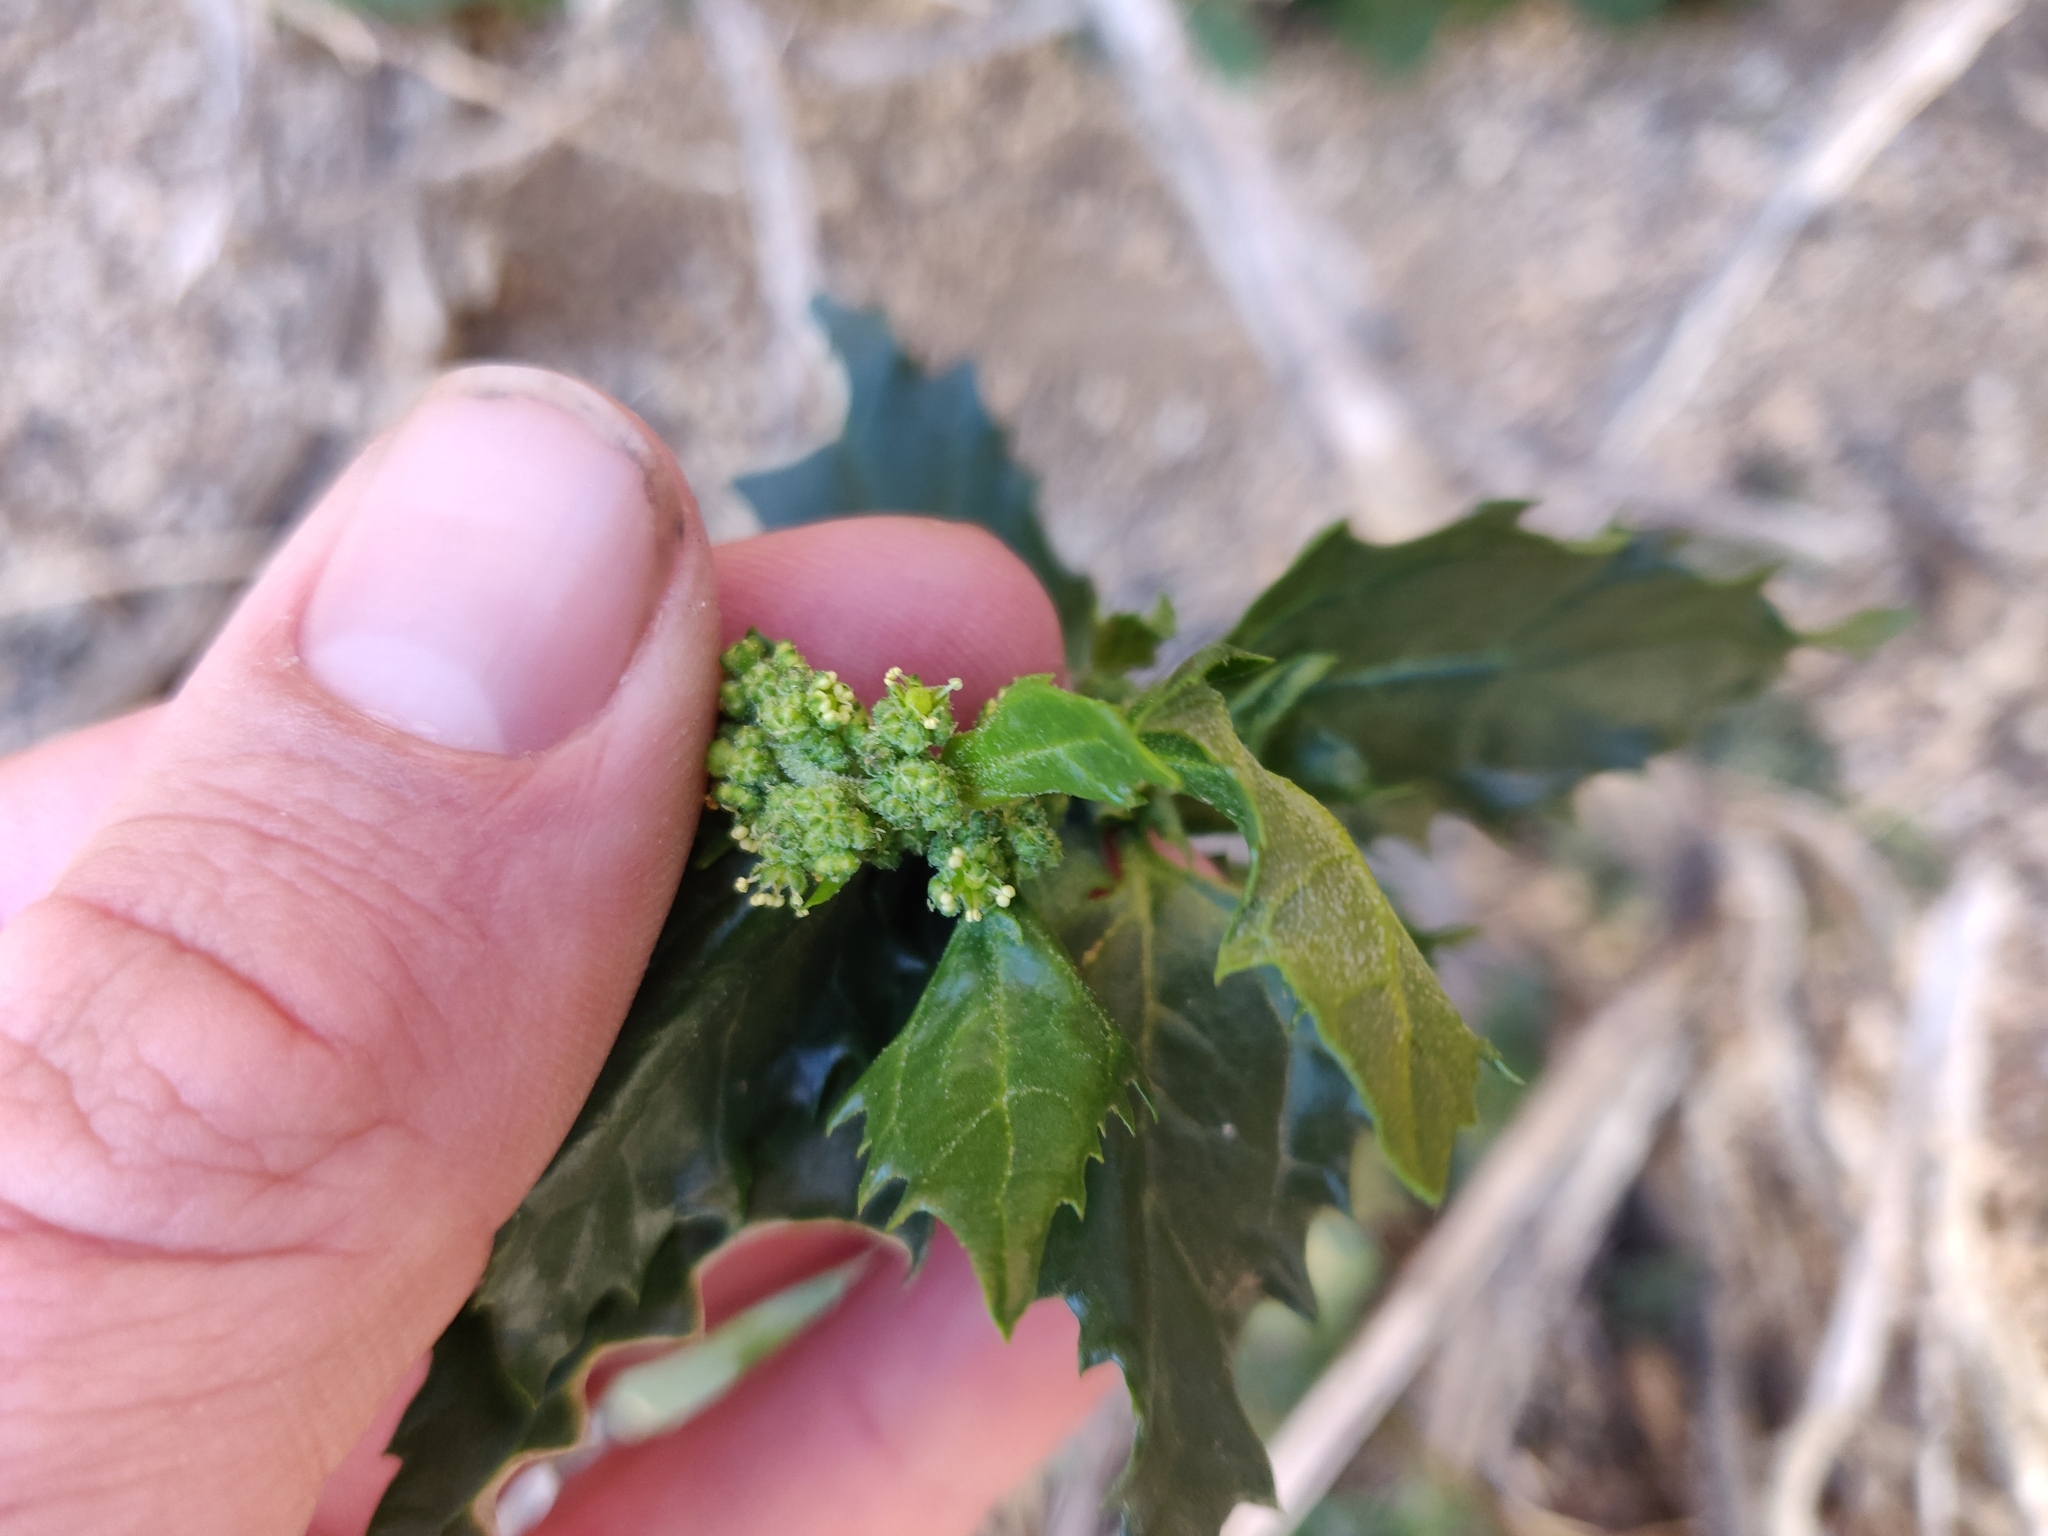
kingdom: Plantae
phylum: Tracheophyta
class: Magnoliopsida
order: Caryophyllales
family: Amaranthaceae
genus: Chenopodiastrum
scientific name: Chenopodiastrum murale
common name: Sowbane
